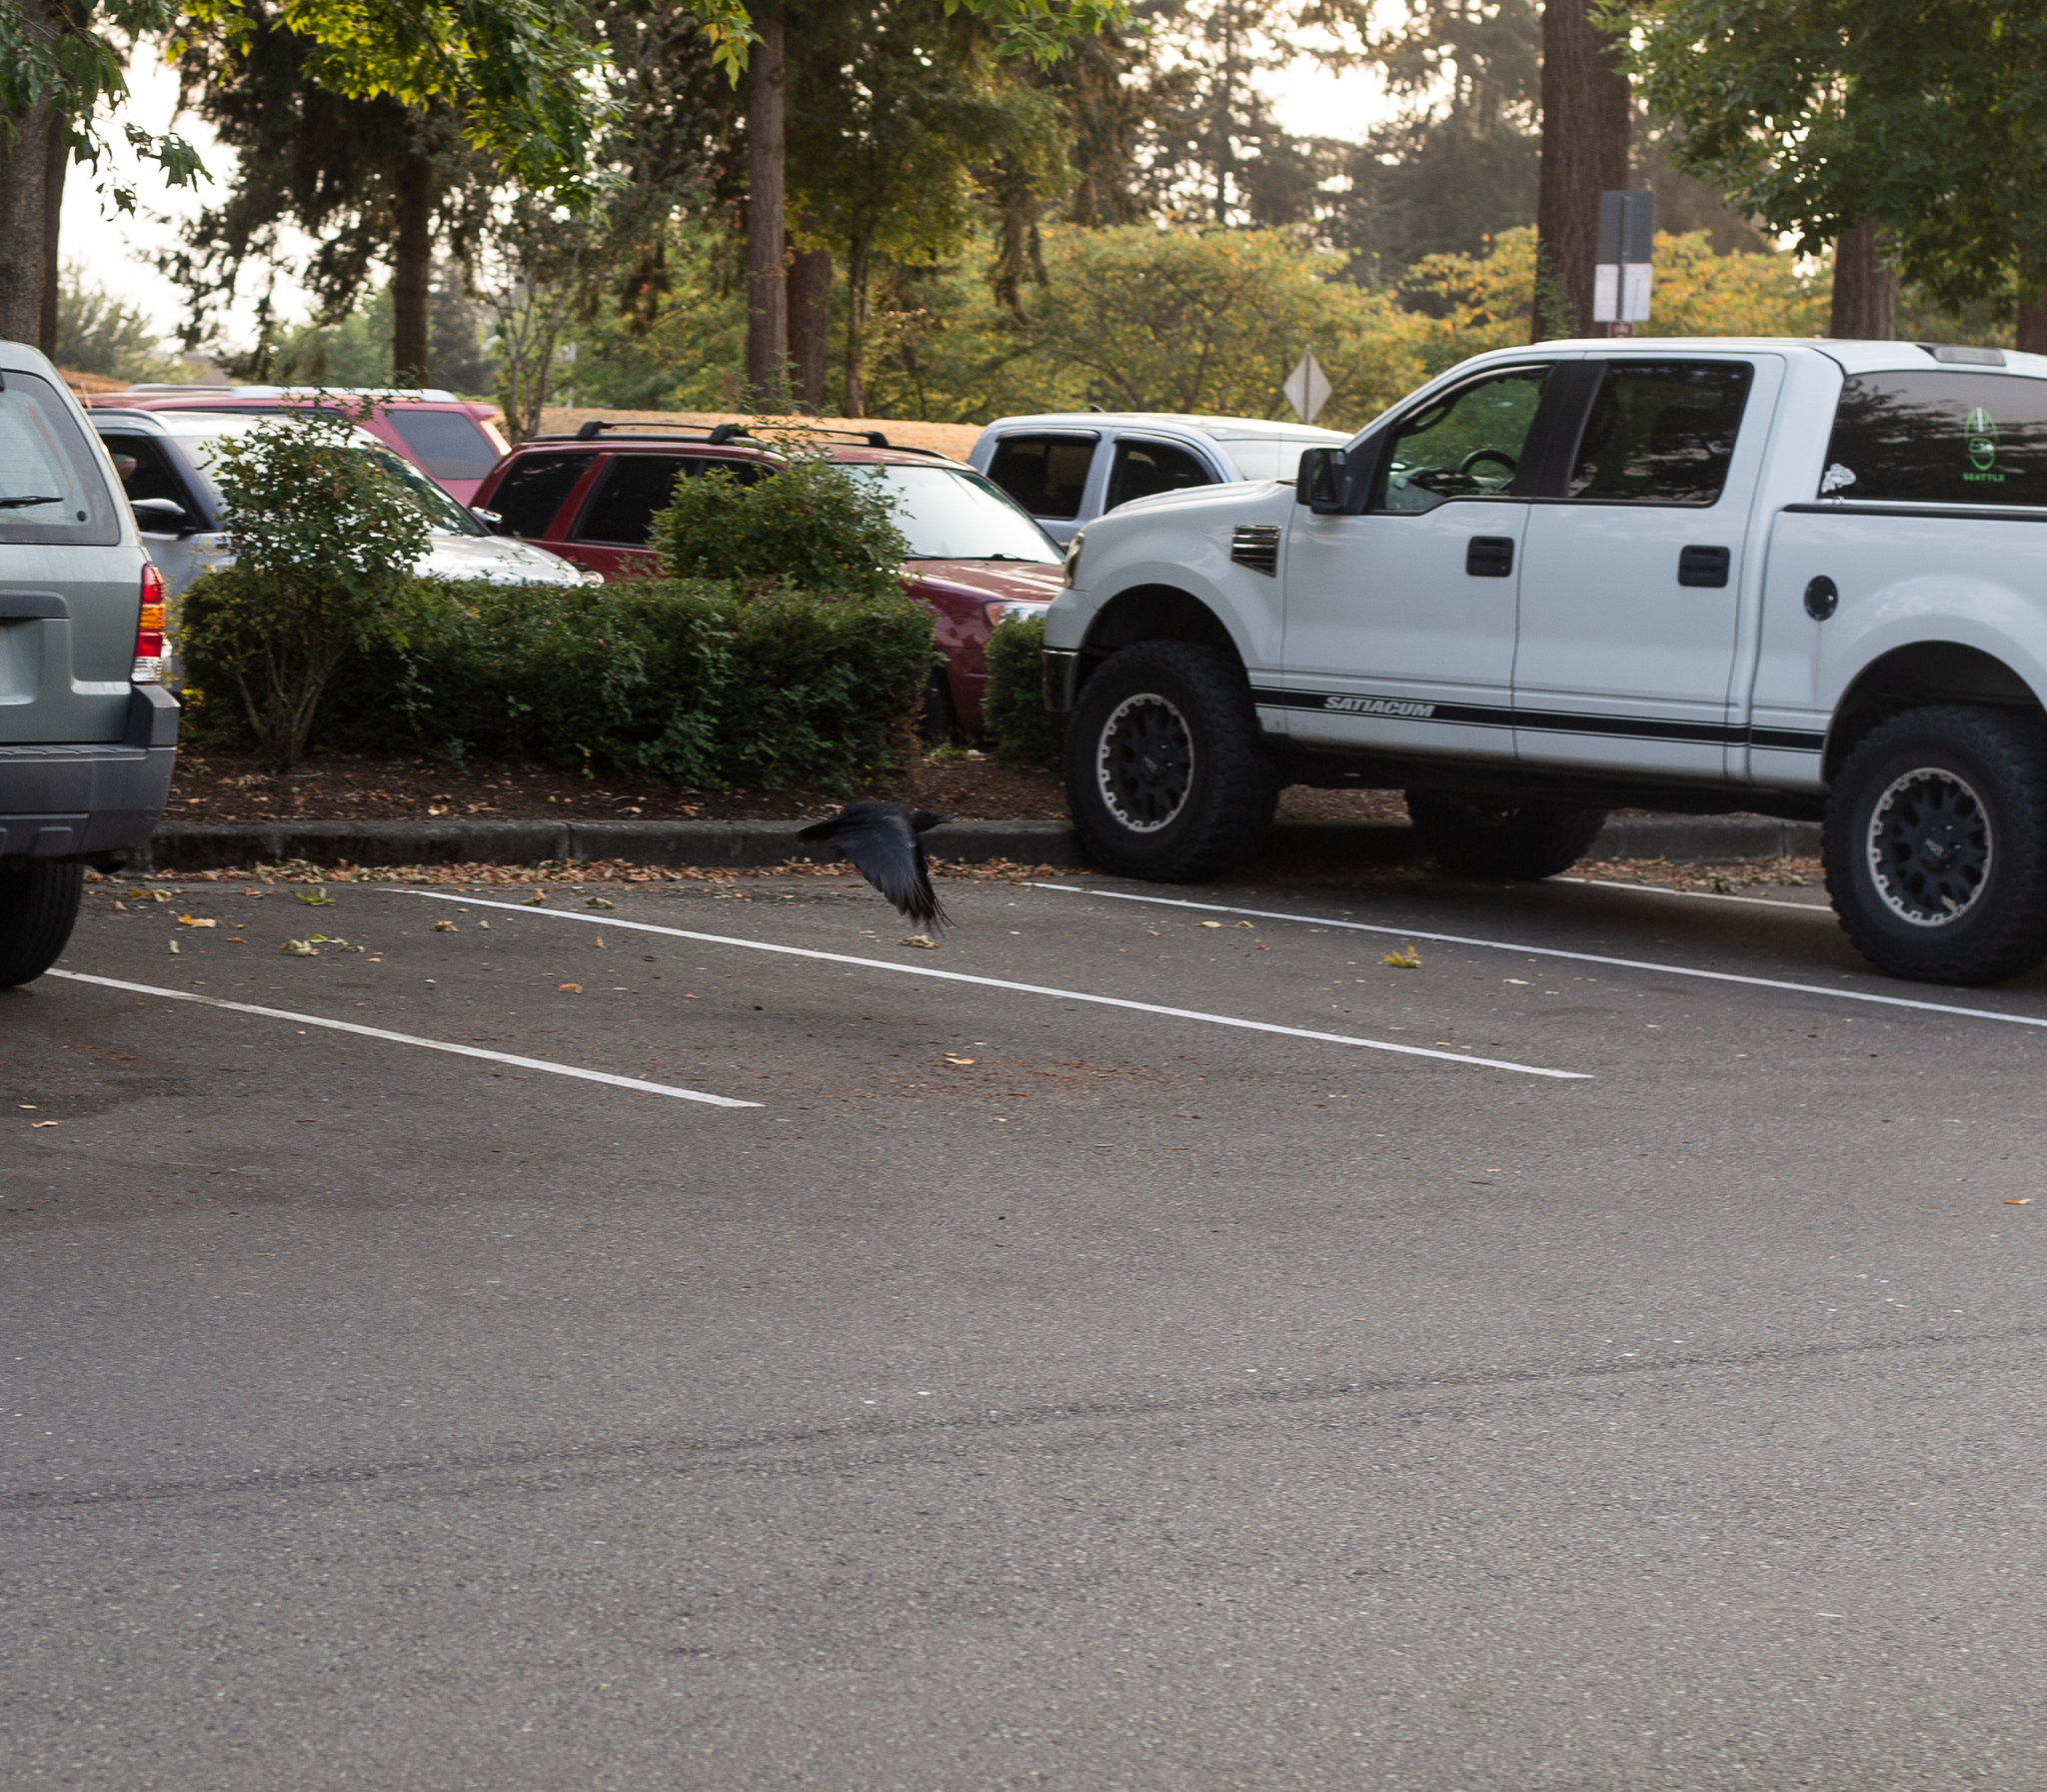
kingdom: Animalia
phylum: Chordata
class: Aves
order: Passeriformes
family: Corvidae
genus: Corvus
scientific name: Corvus brachyrhynchos
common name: American crow
